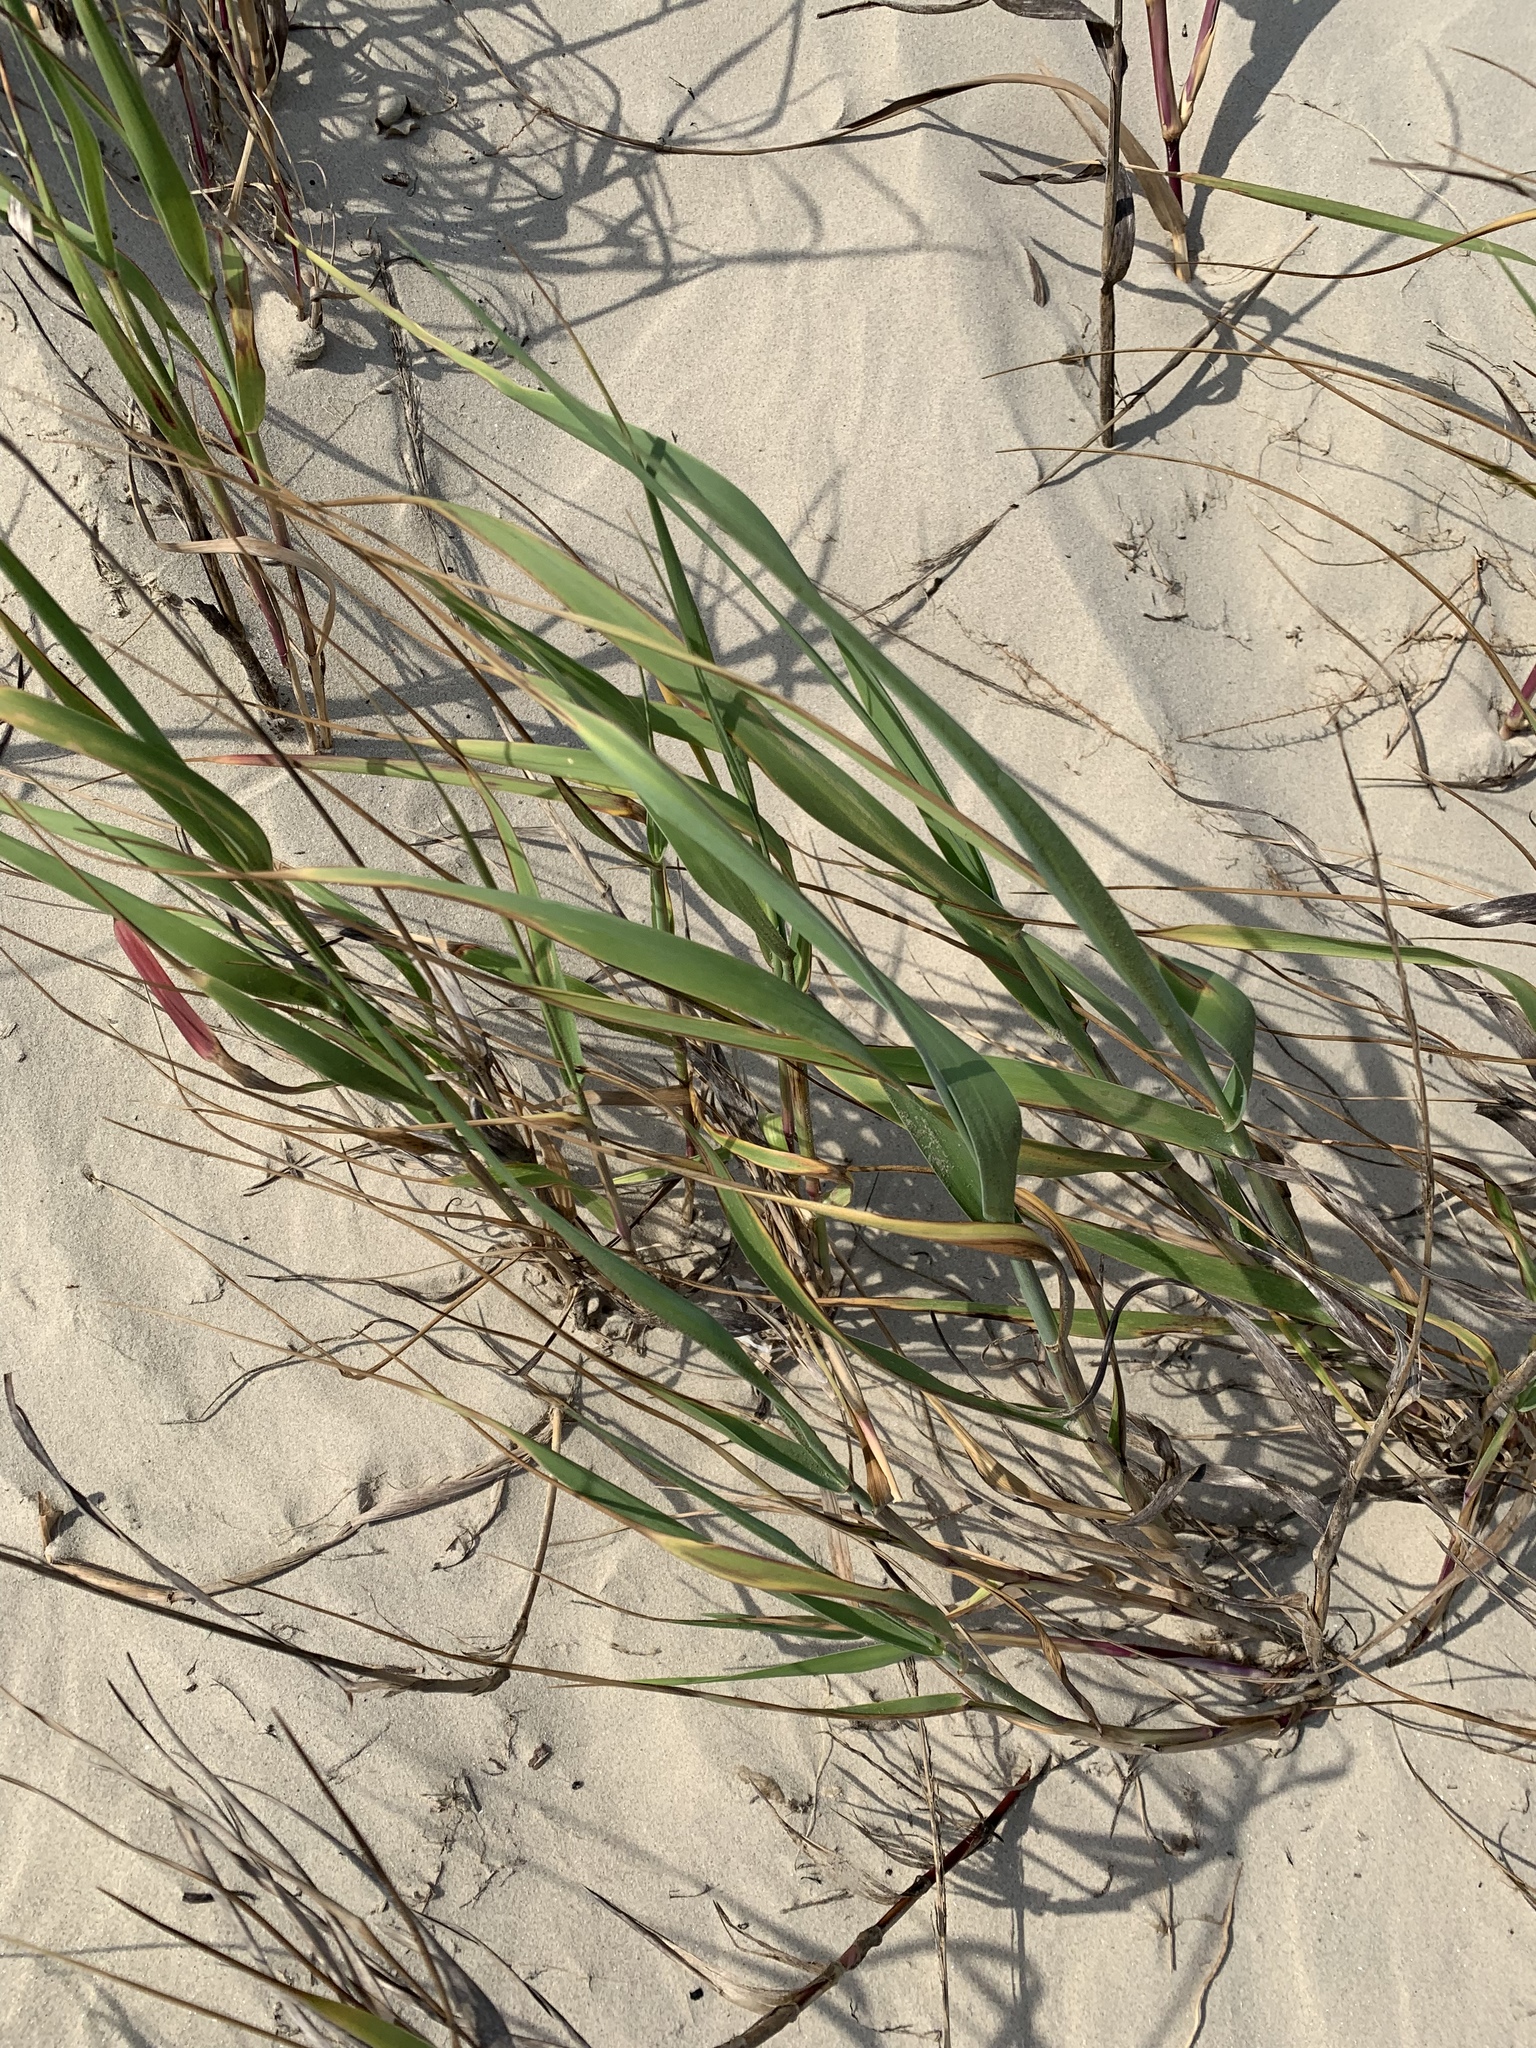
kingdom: Plantae
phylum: Tracheophyta
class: Liliopsida
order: Poales
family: Poaceae
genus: Panicum
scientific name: Panicum amarum
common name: Bitter panicum
